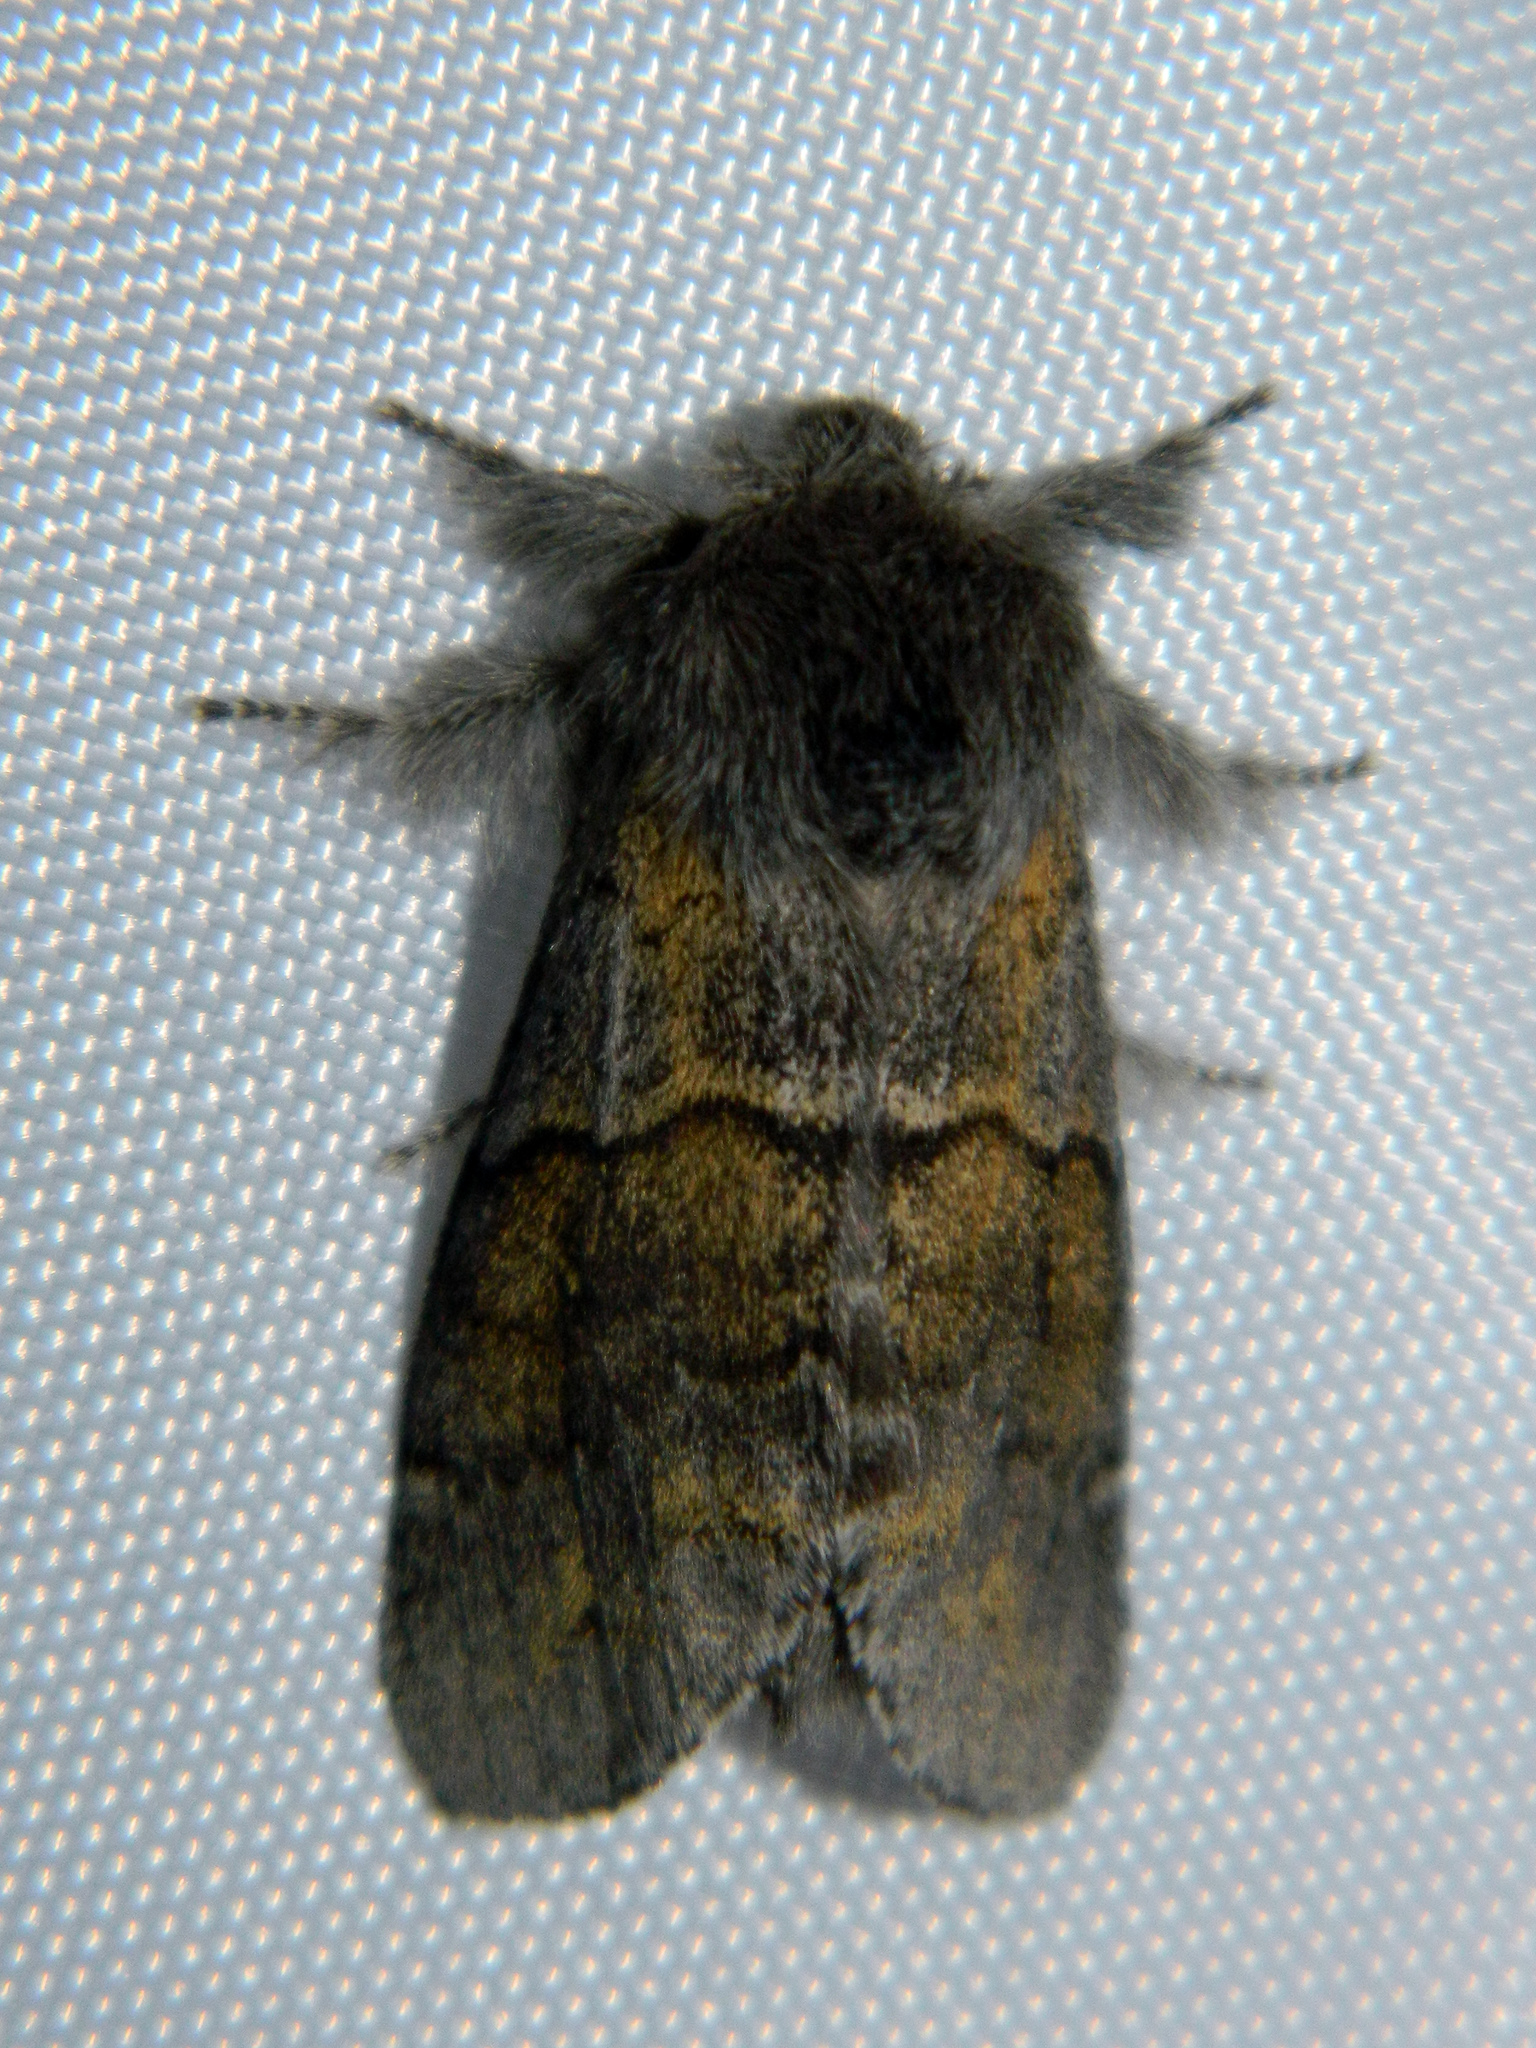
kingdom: Animalia
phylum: Arthropoda
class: Insecta
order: Lepidoptera
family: Notodontidae
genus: Gluphisia
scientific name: Gluphisia lintneri
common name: Lintner's gluphisia moth
